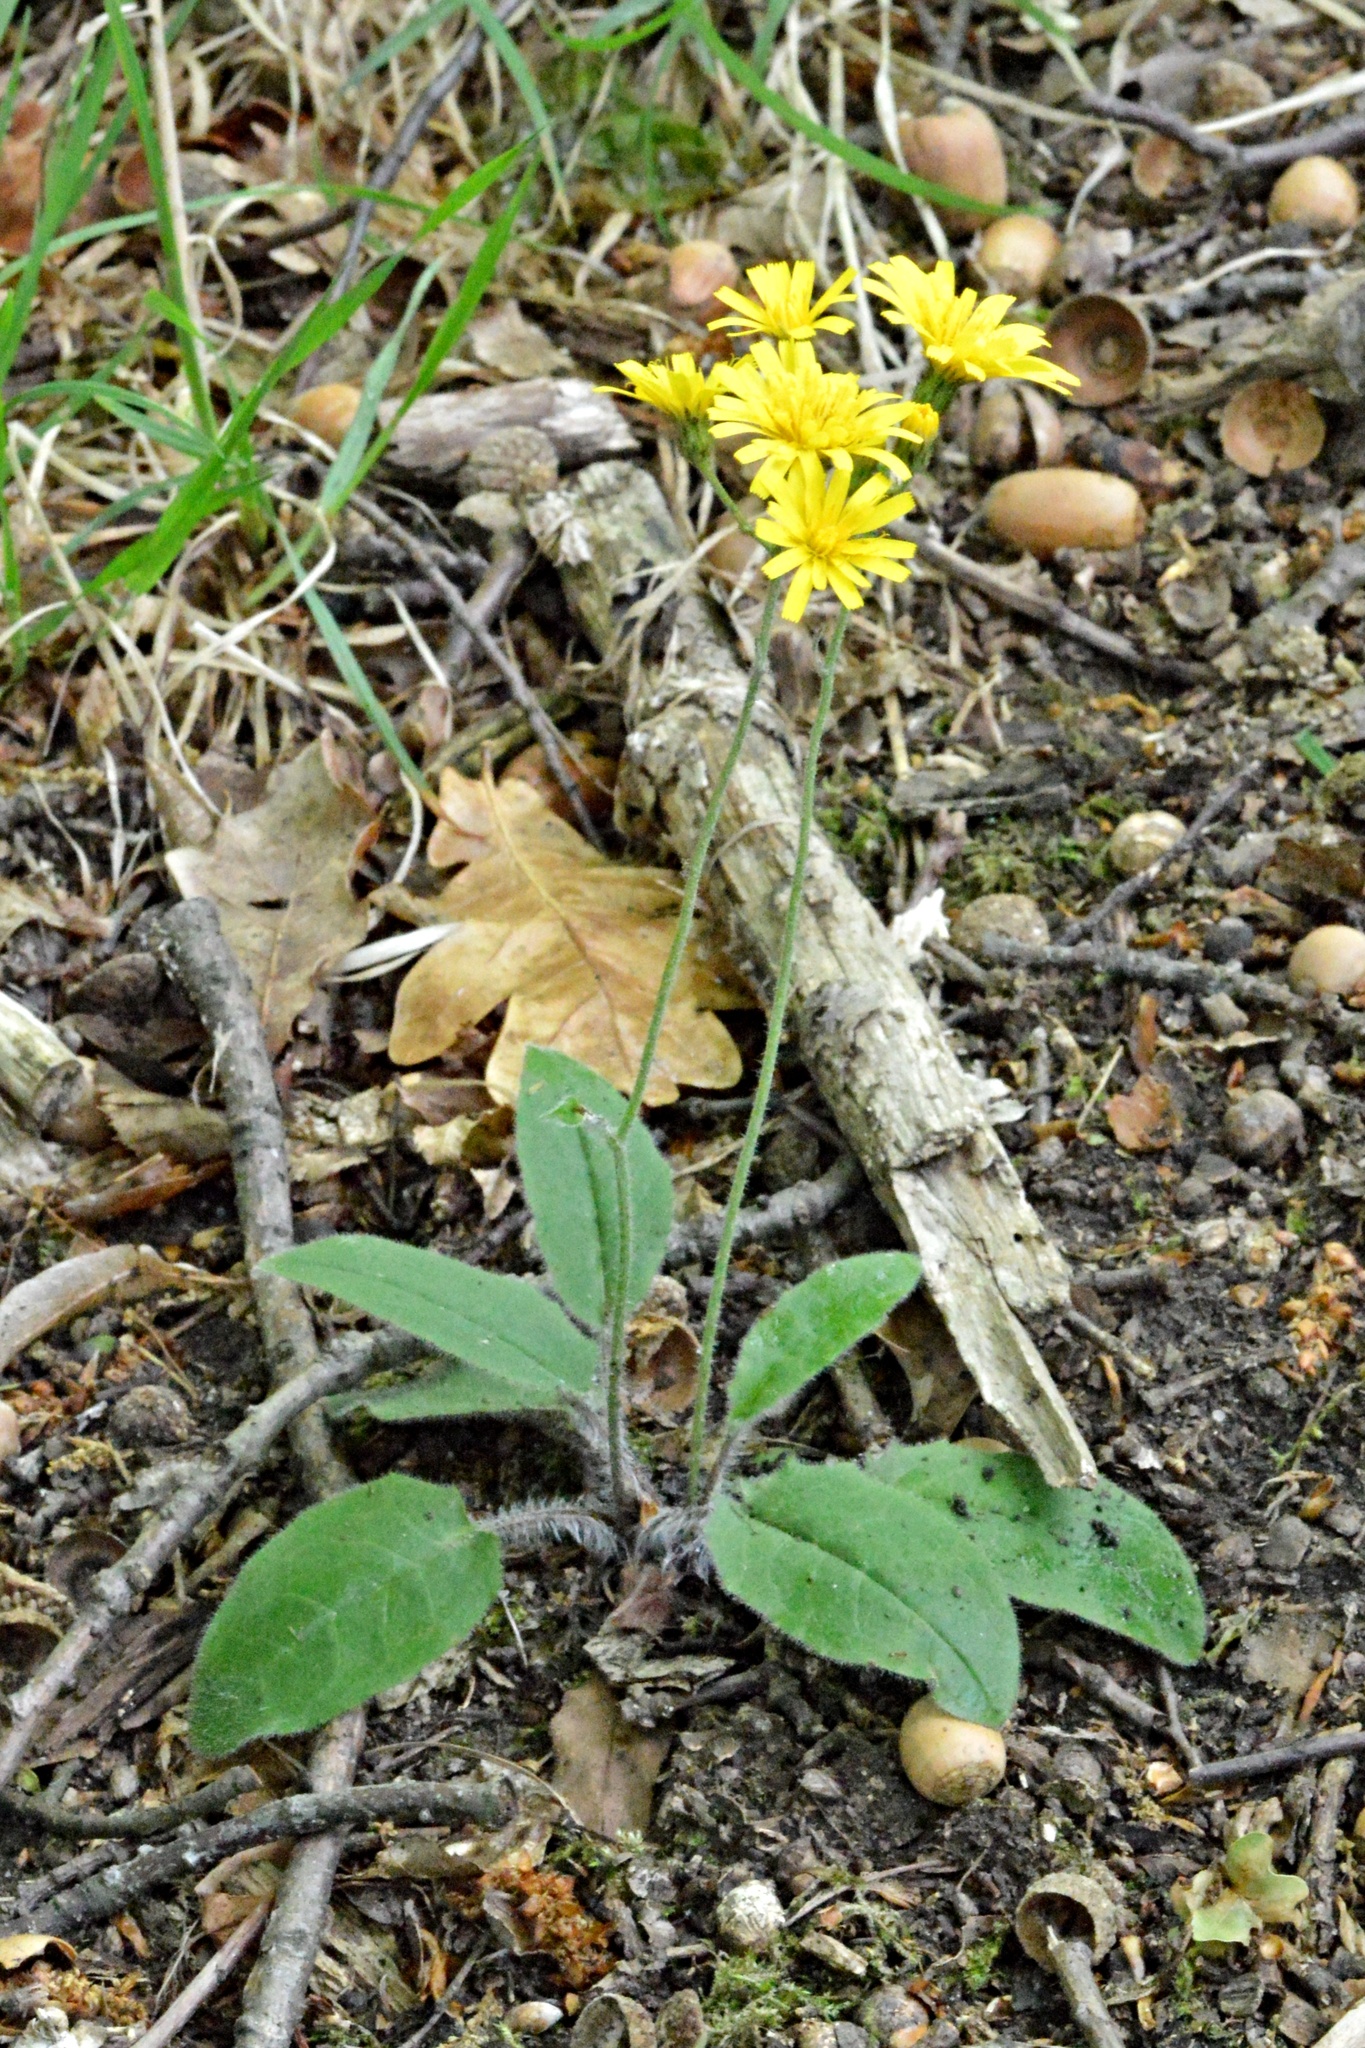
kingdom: Plantae
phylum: Tracheophyta
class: Magnoliopsida
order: Asterales
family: Asteraceae
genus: Hieracium
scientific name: Hieracium murorum
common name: Wall hawkweed
